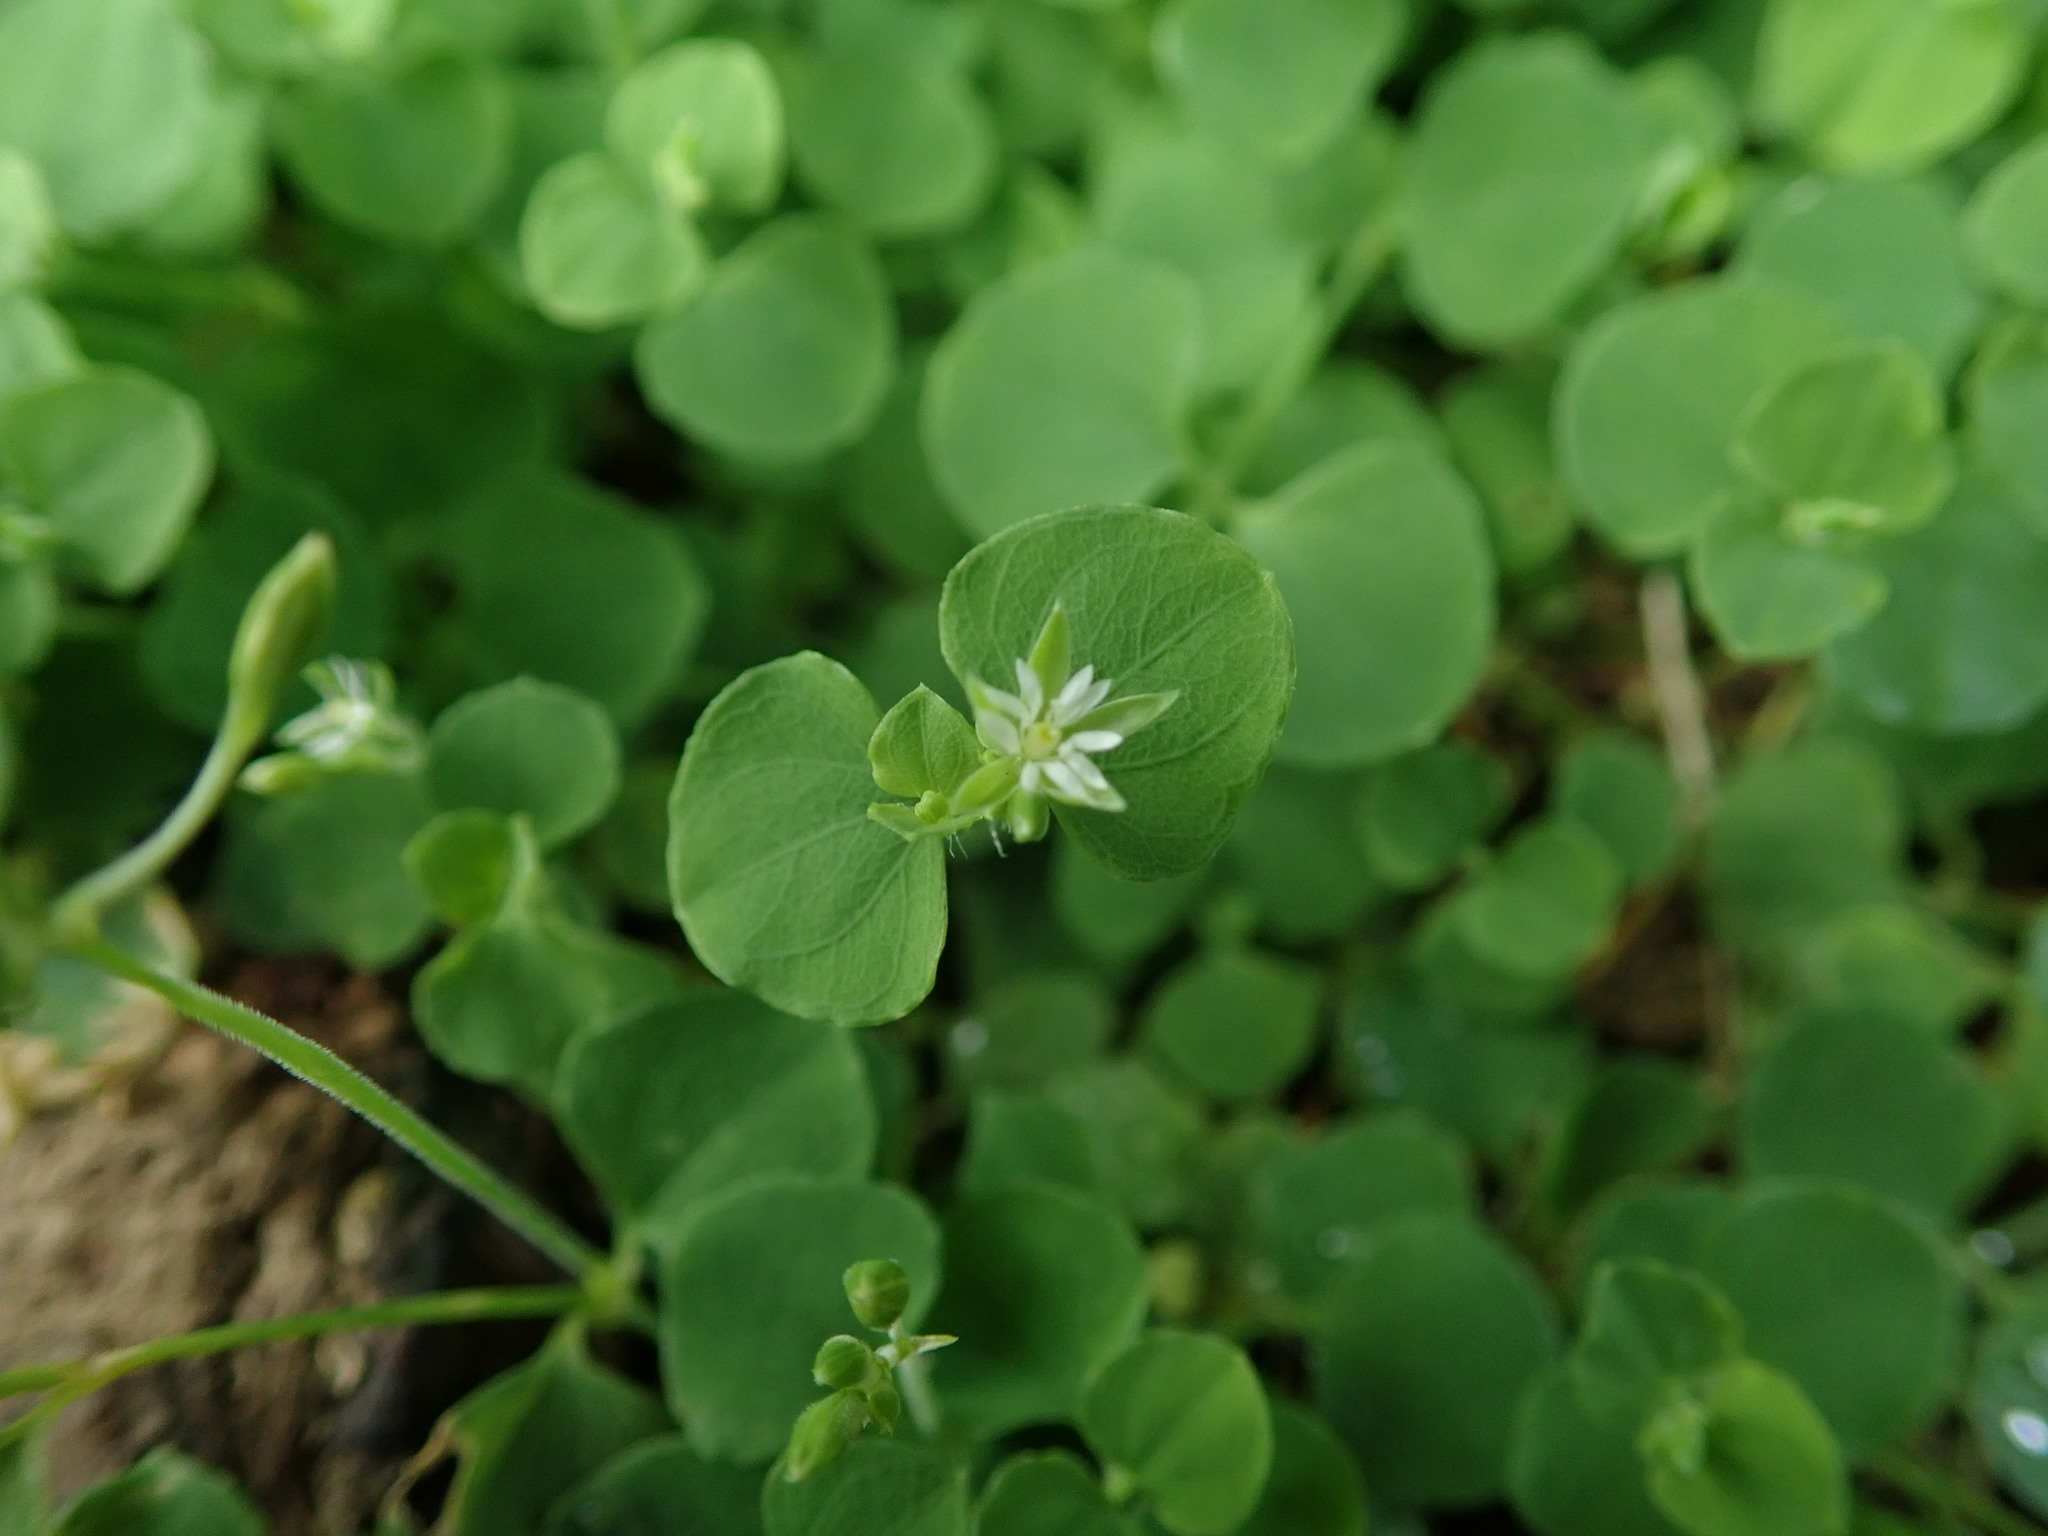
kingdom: Plantae
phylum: Tracheophyta
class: Magnoliopsida
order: Caryophyllales
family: Caryophyllaceae
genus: Drymaria
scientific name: Drymaria cordata
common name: Whitesnow
